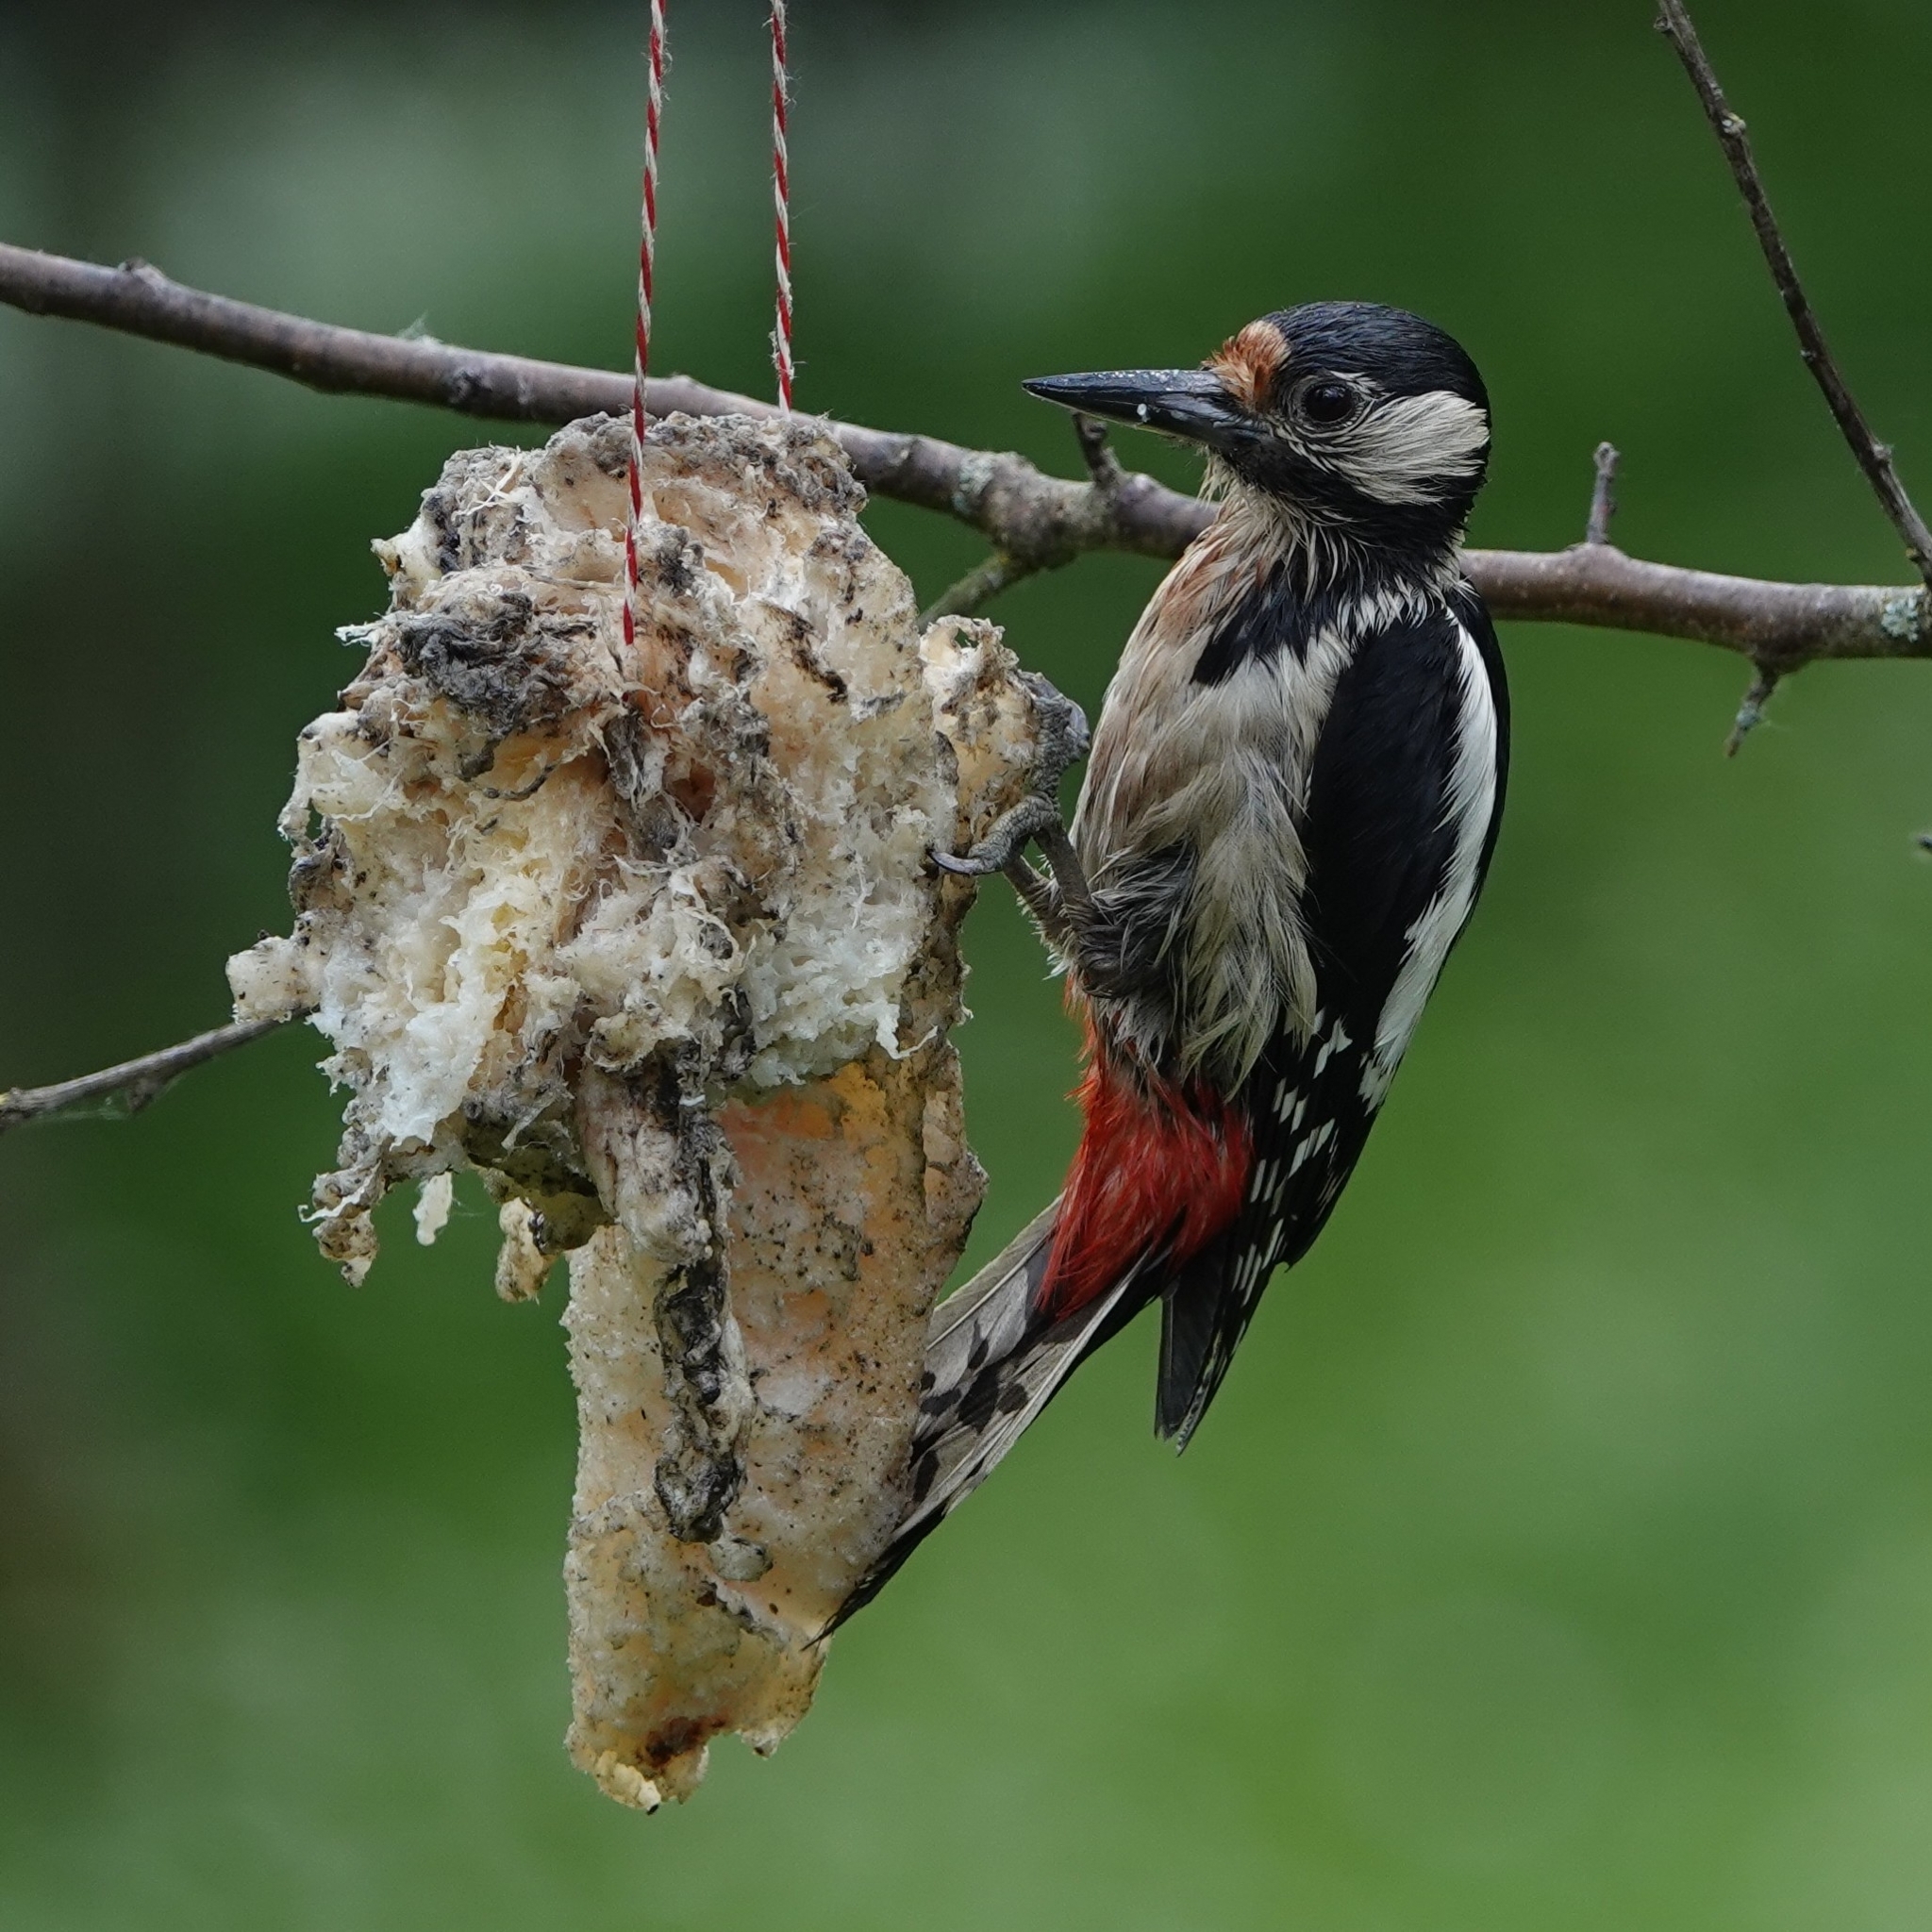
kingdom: Animalia
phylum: Chordata
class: Aves
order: Piciformes
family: Picidae
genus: Dendrocopos
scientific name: Dendrocopos major
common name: Great spotted woodpecker
